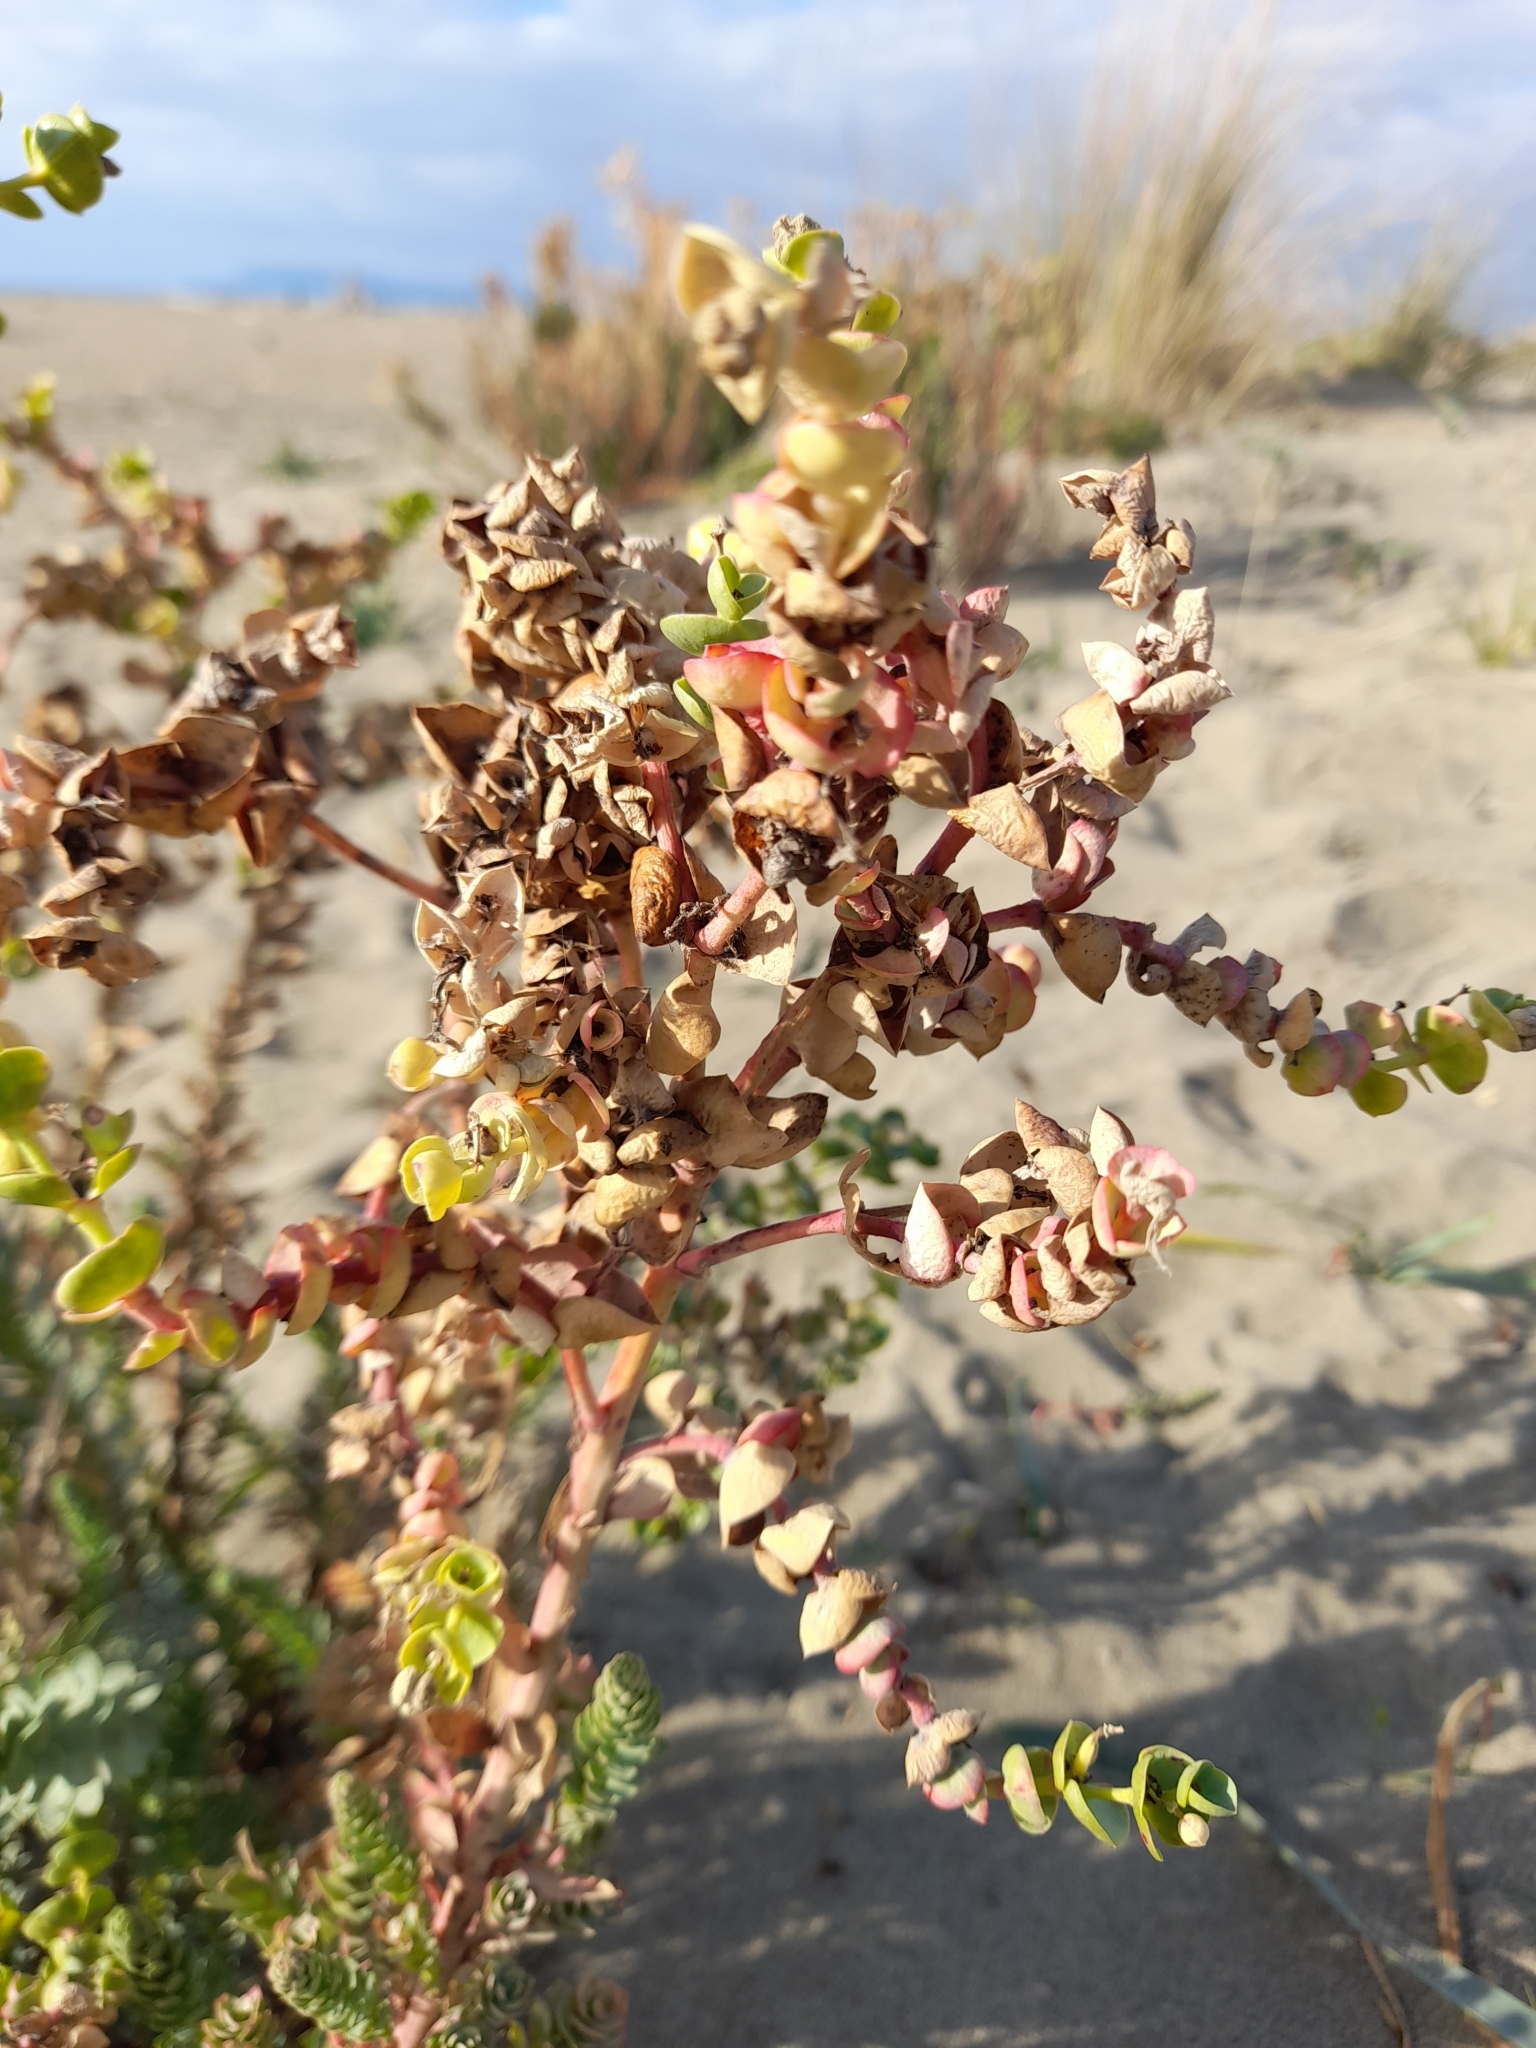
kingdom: Plantae
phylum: Tracheophyta
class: Magnoliopsida
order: Malpighiales
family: Euphorbiaceae
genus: Euphorbia
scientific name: Euphorbia paralias
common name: Sea spurge
